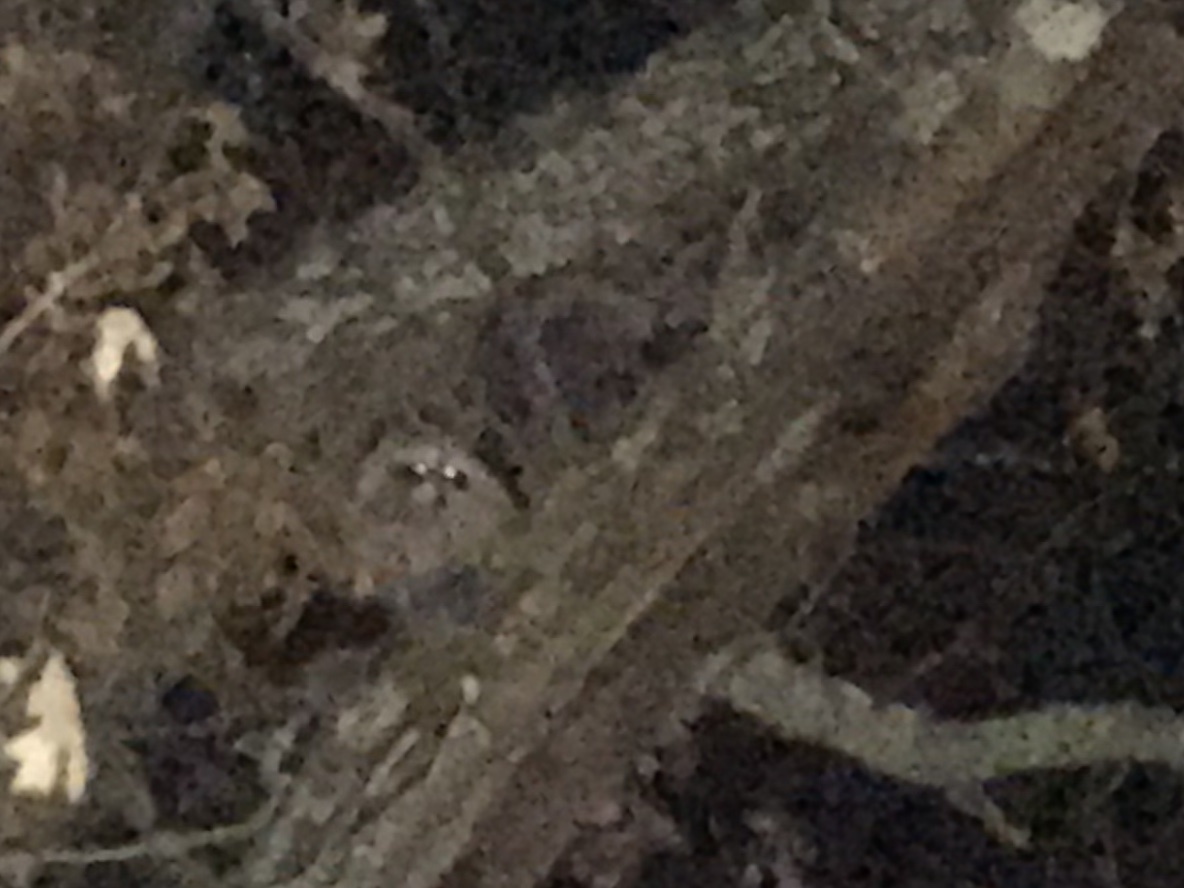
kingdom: Animalia
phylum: Chordata
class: Mammalia
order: Carnivora
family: Procyonidae
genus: Procyon
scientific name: Procyon lotor
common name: Raccoon
